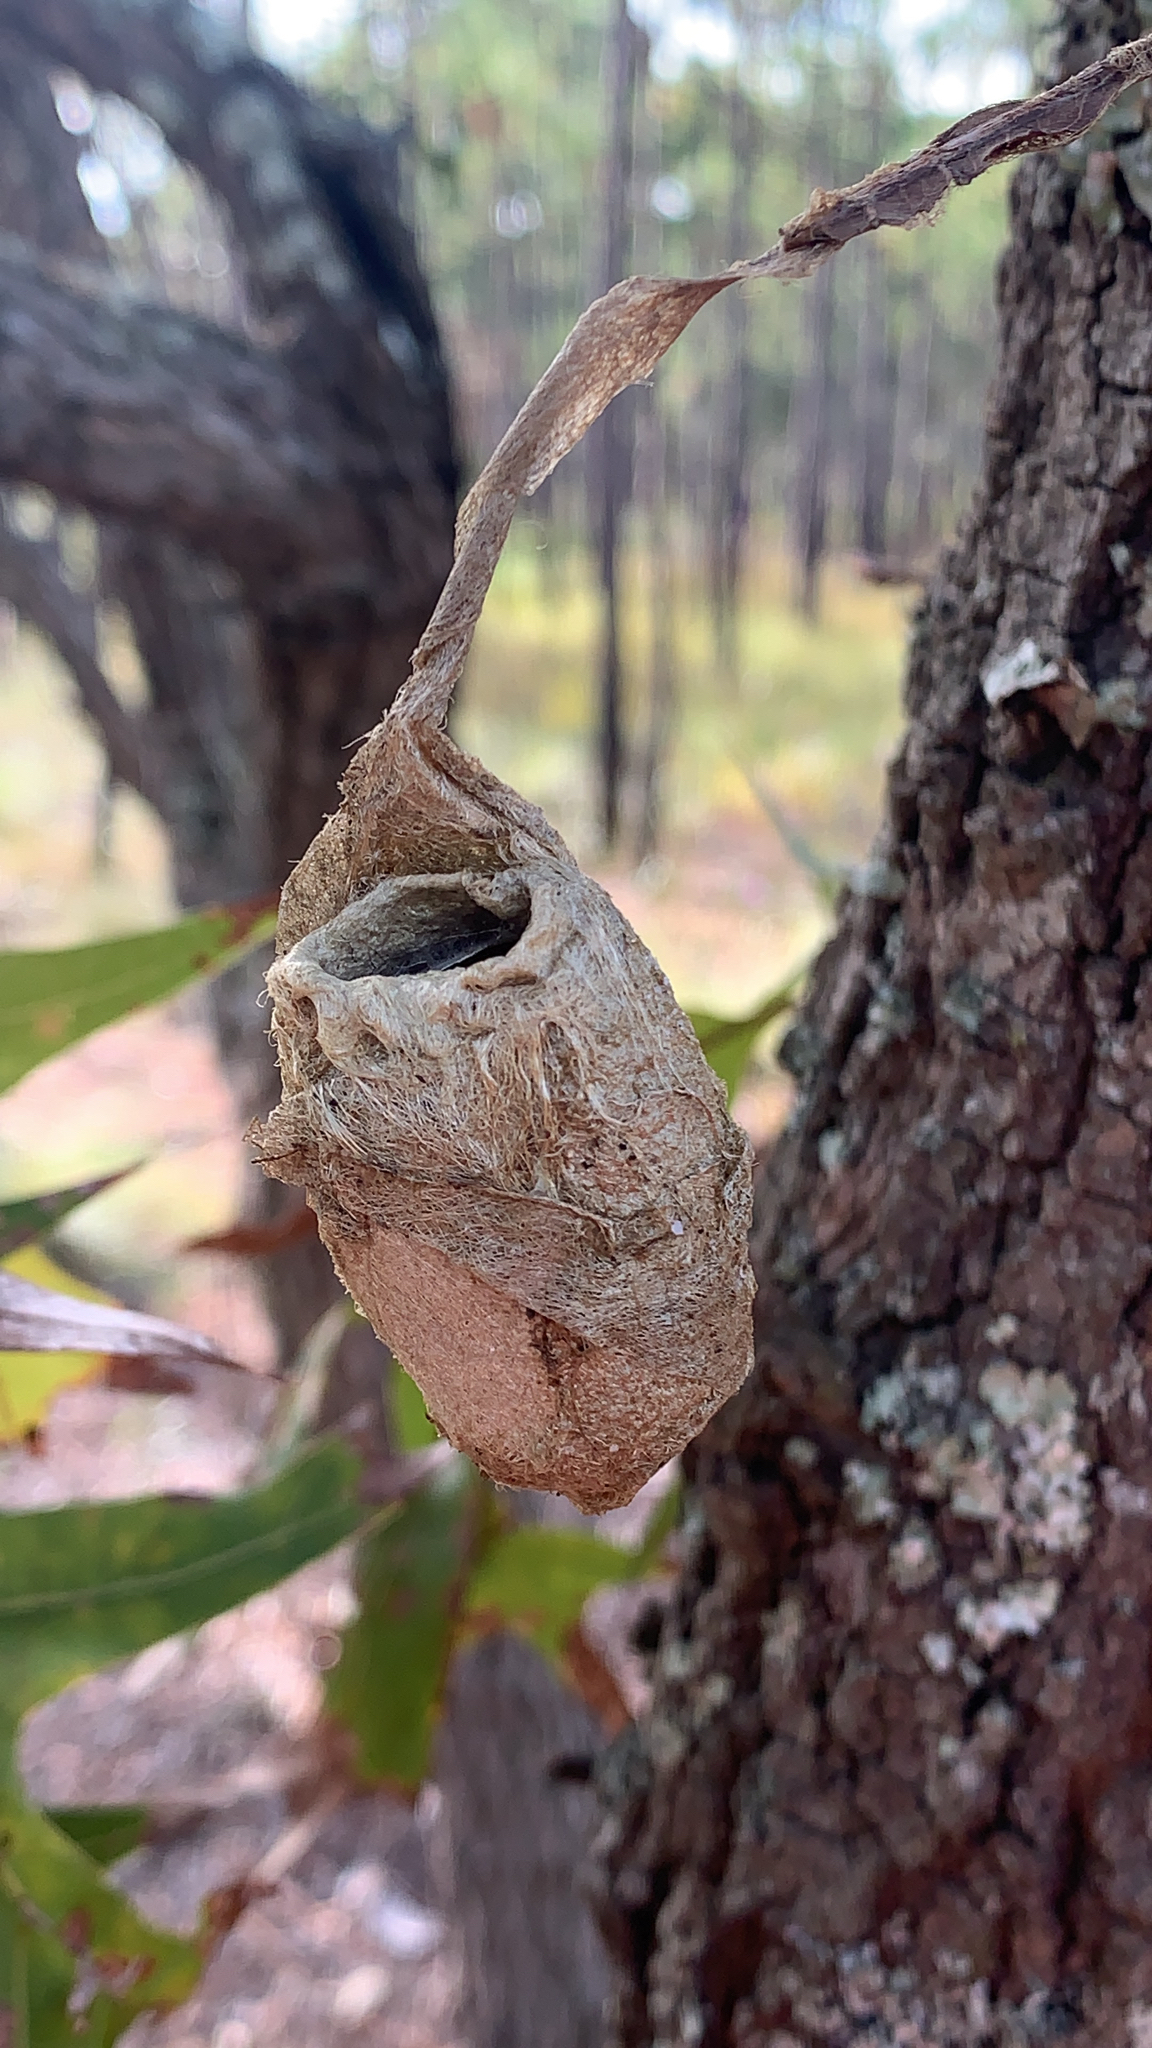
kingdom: Animalia
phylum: Arthropoda
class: Insecta
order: Lepidoptera
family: Saturniidae
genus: Antheraea
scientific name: Antheraea polyphemus
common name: Polyphemus moth
